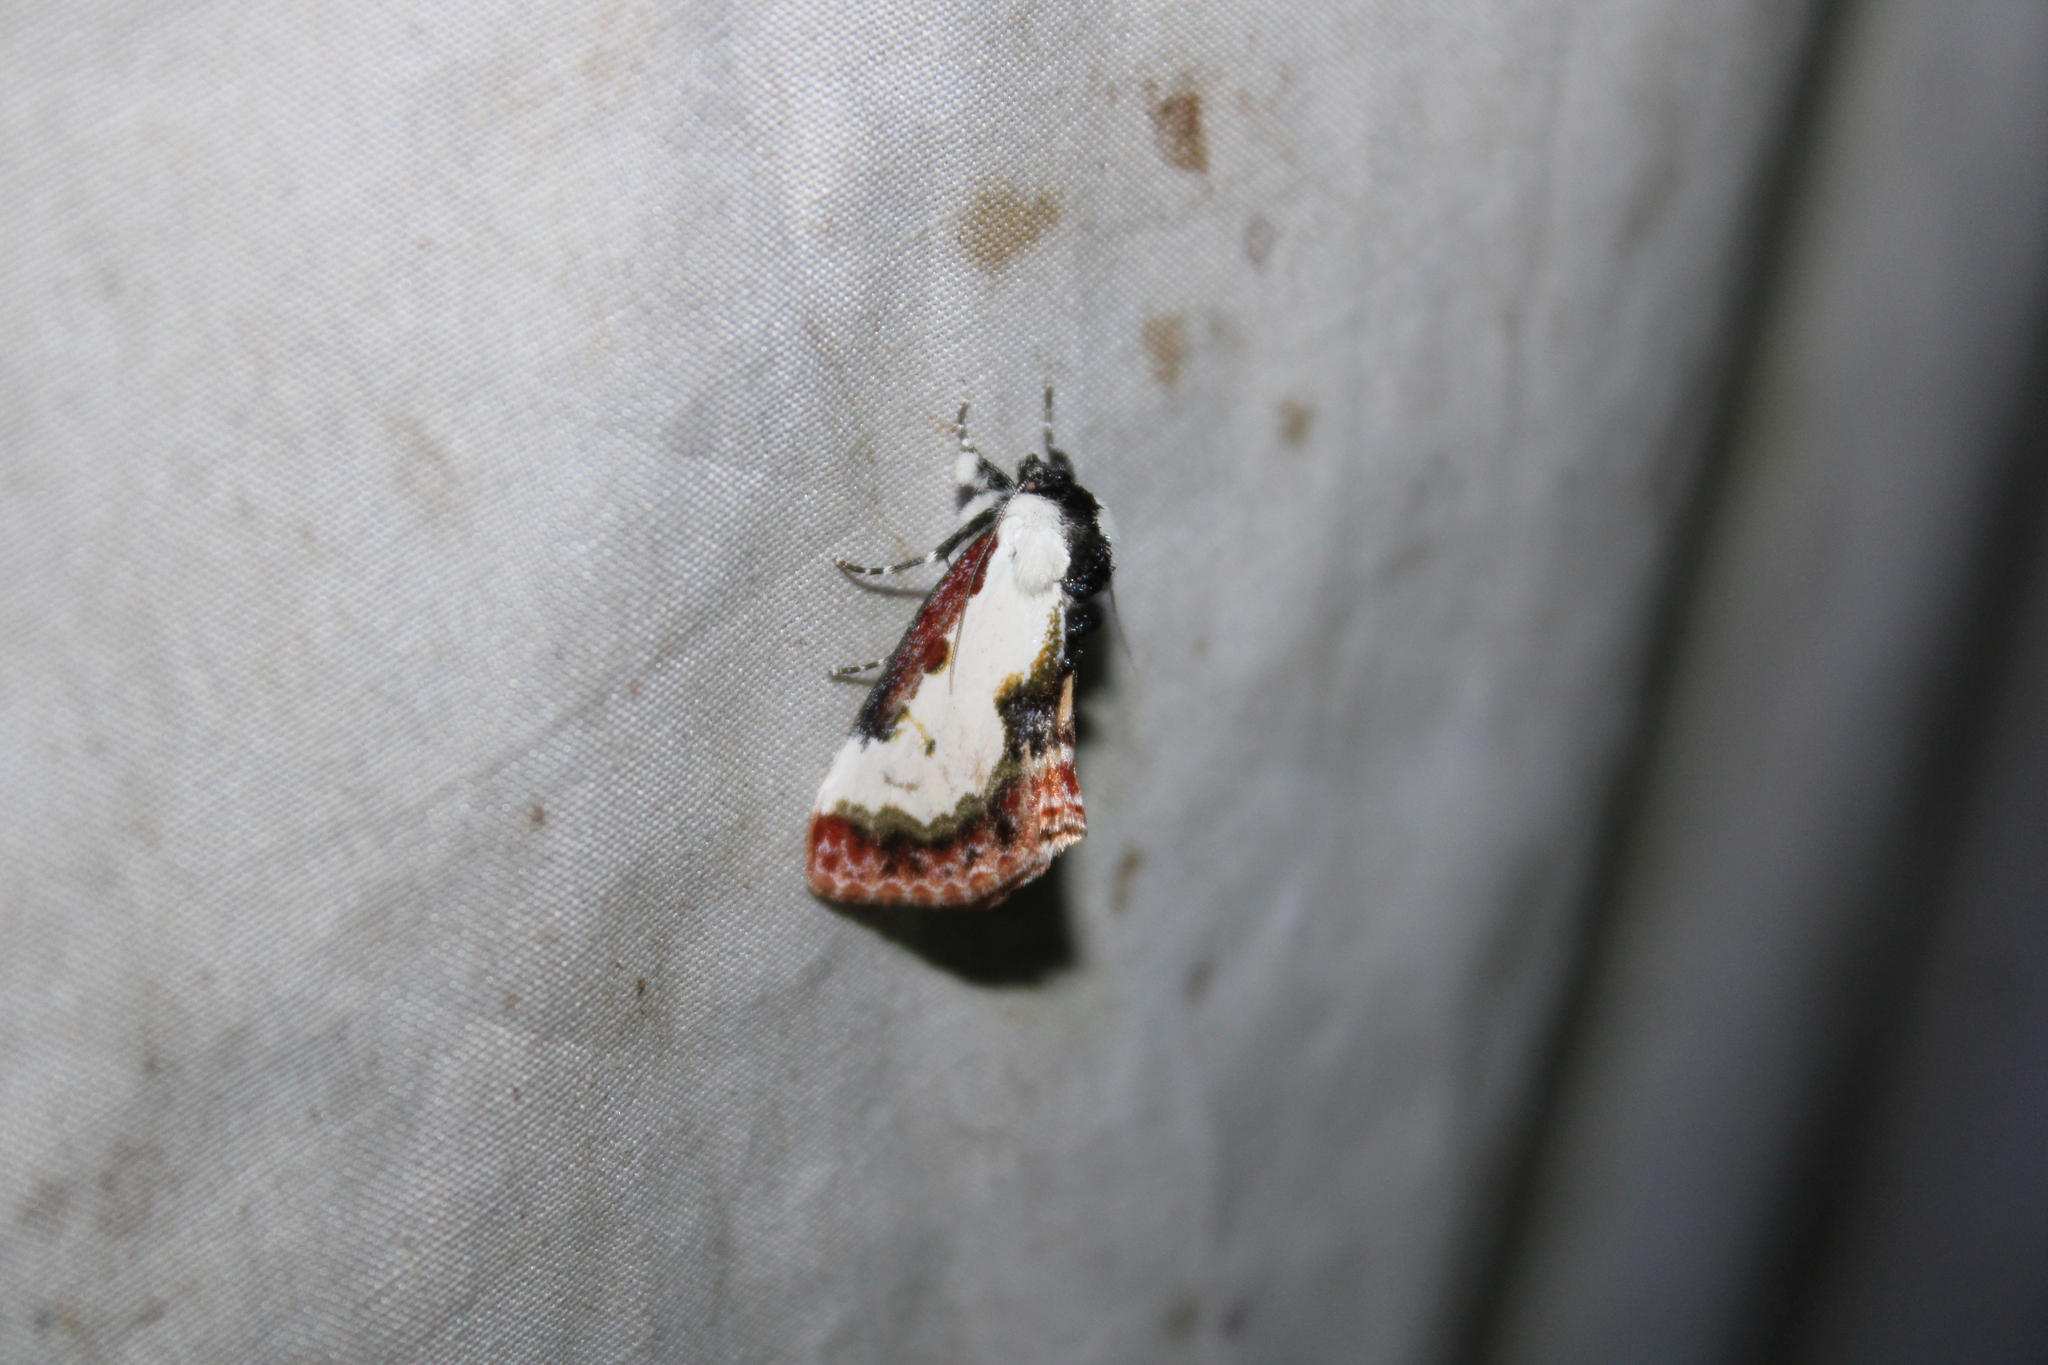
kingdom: Animalia
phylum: Arthropoda
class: Insecta
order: Lepidoptera
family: Noctuidae
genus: Eudryas
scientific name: Eudryas unio
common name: Pearly wood-nymph
